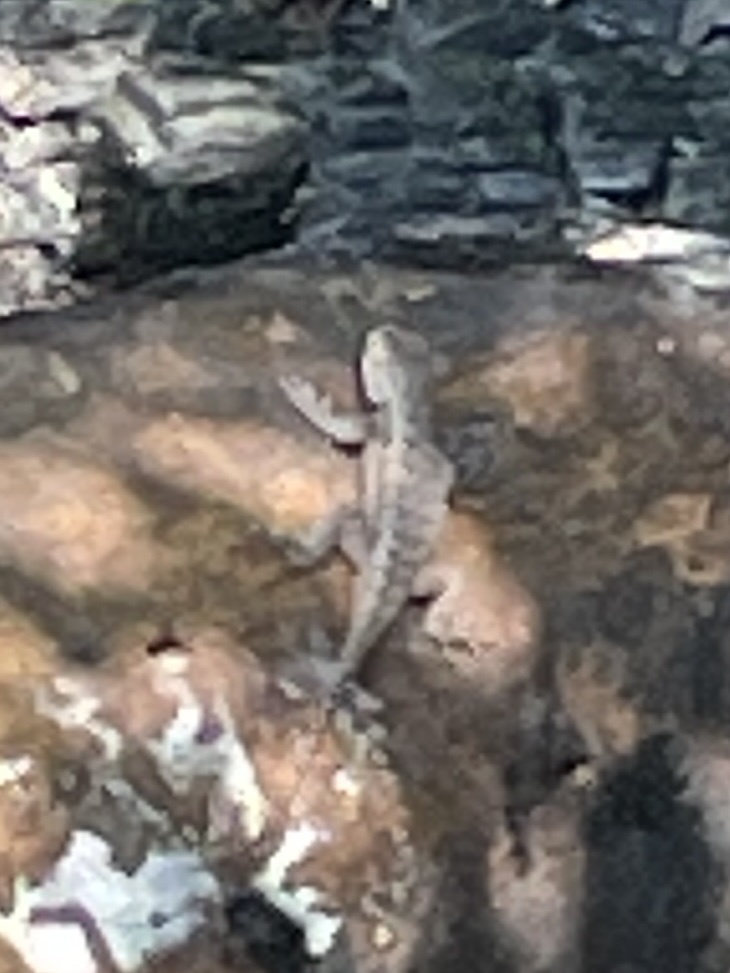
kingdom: Animalia
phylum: Chordata
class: Squamata
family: Phrynosomatidae
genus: Sceloporus
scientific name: Sceloporus undulatus
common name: Eastern fence lizard
